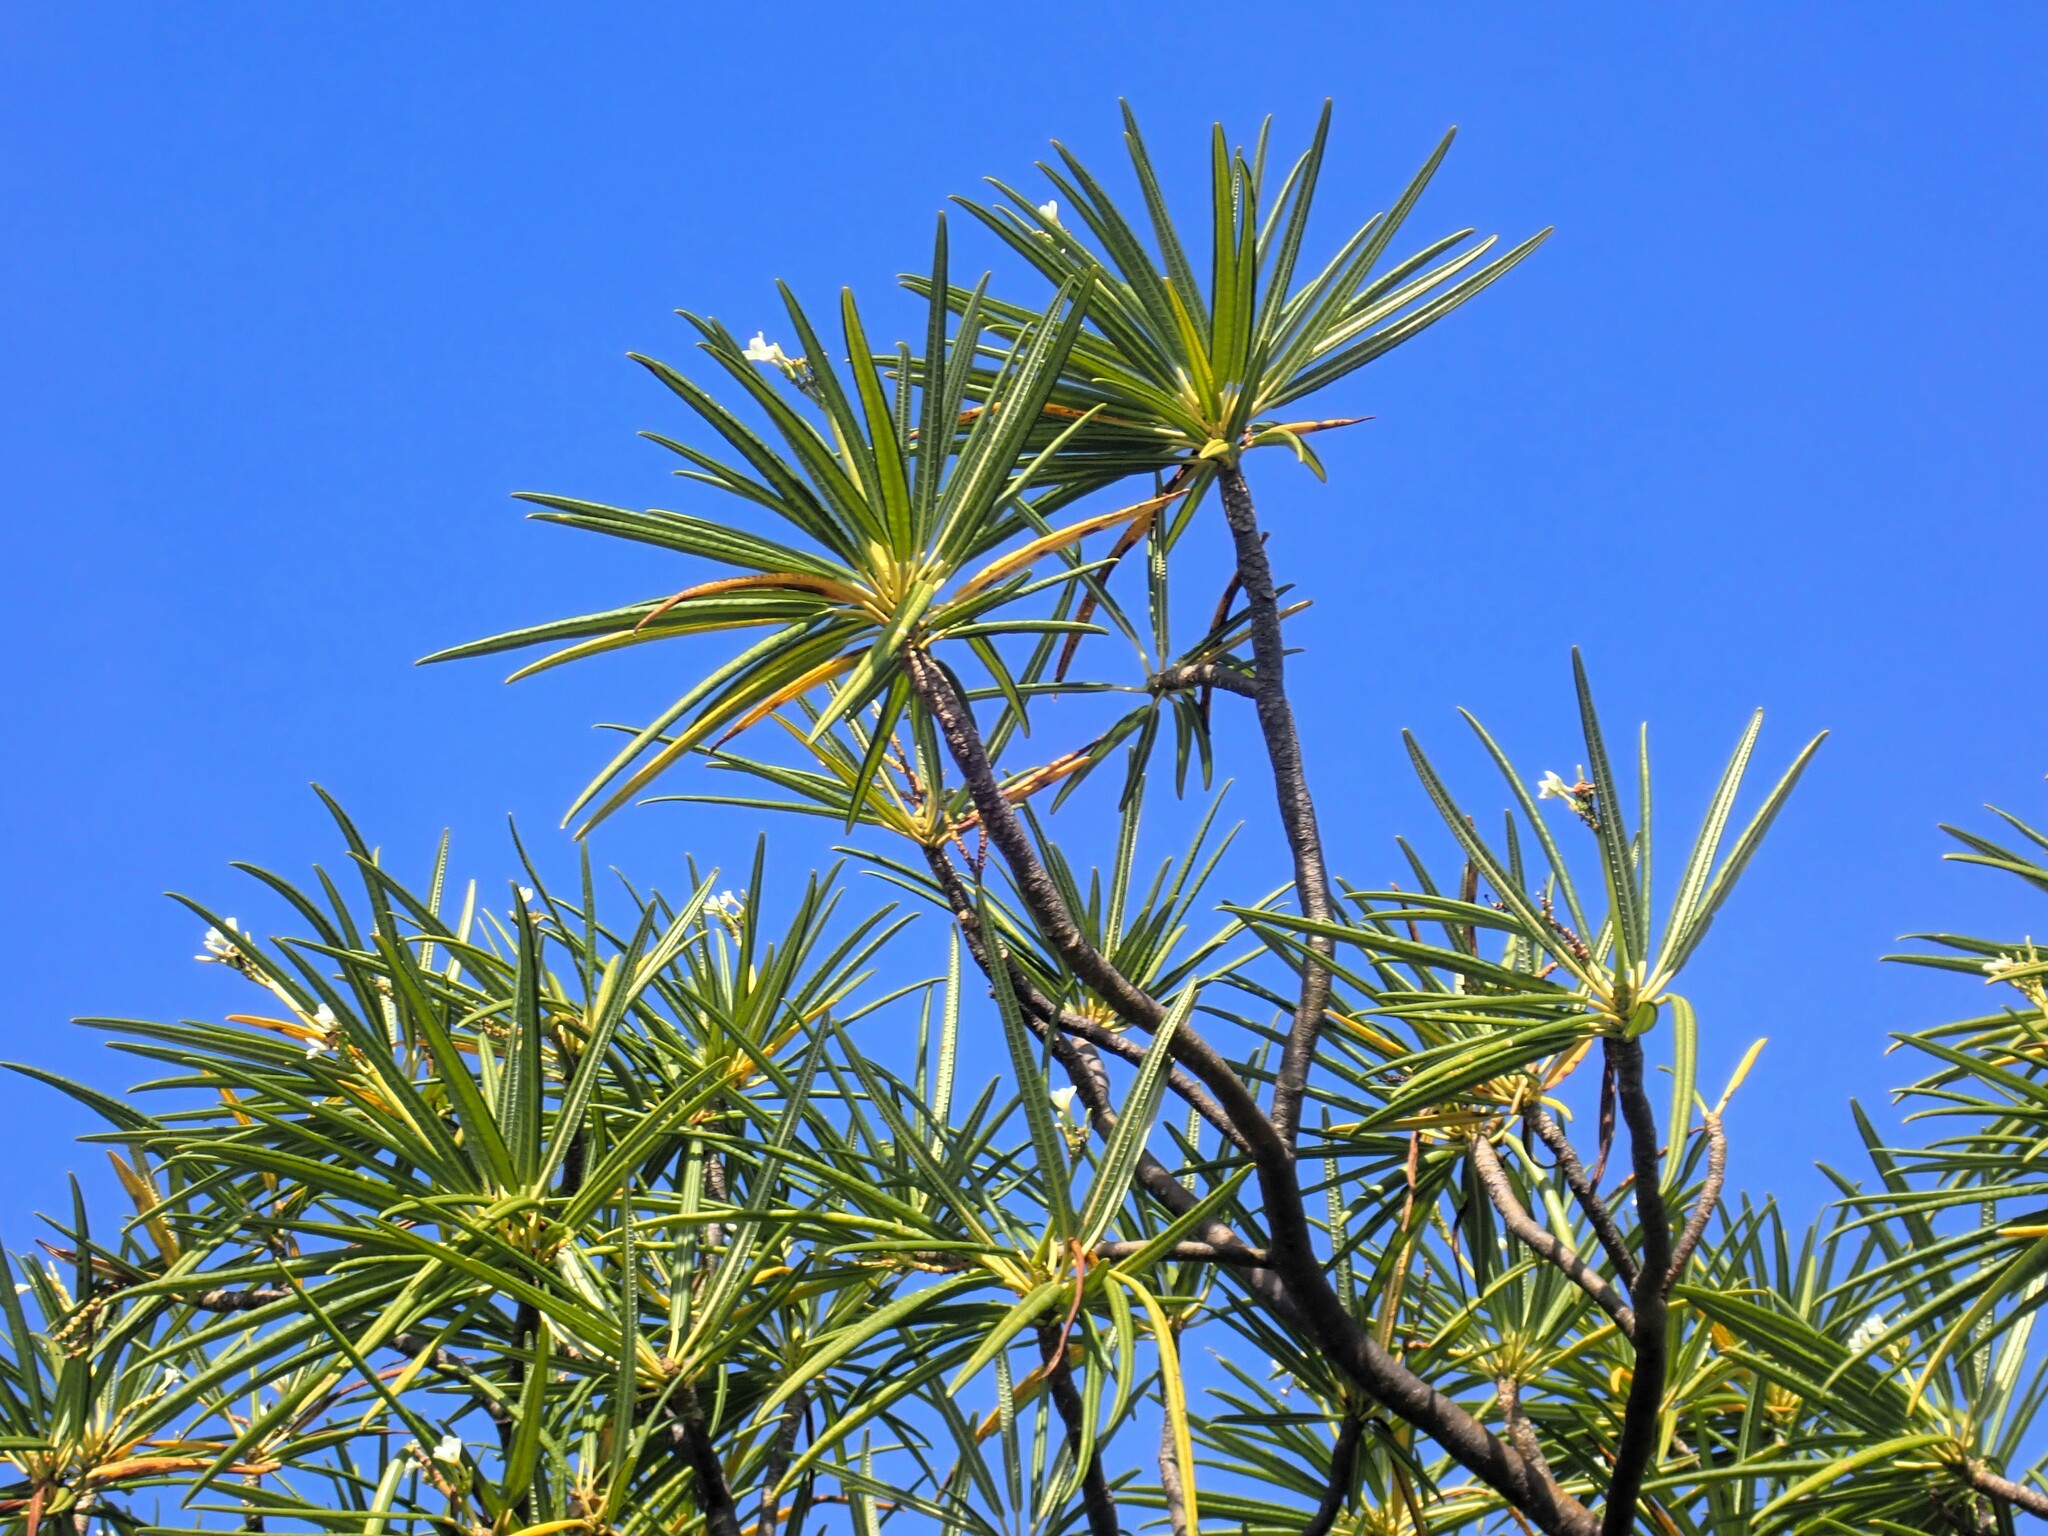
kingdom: Plantae
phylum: Tracheophyta
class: Magnoliopsida
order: Gentianales
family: Apocynaceae
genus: Plumeria
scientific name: Plumeria alba
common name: Wild frangipani
